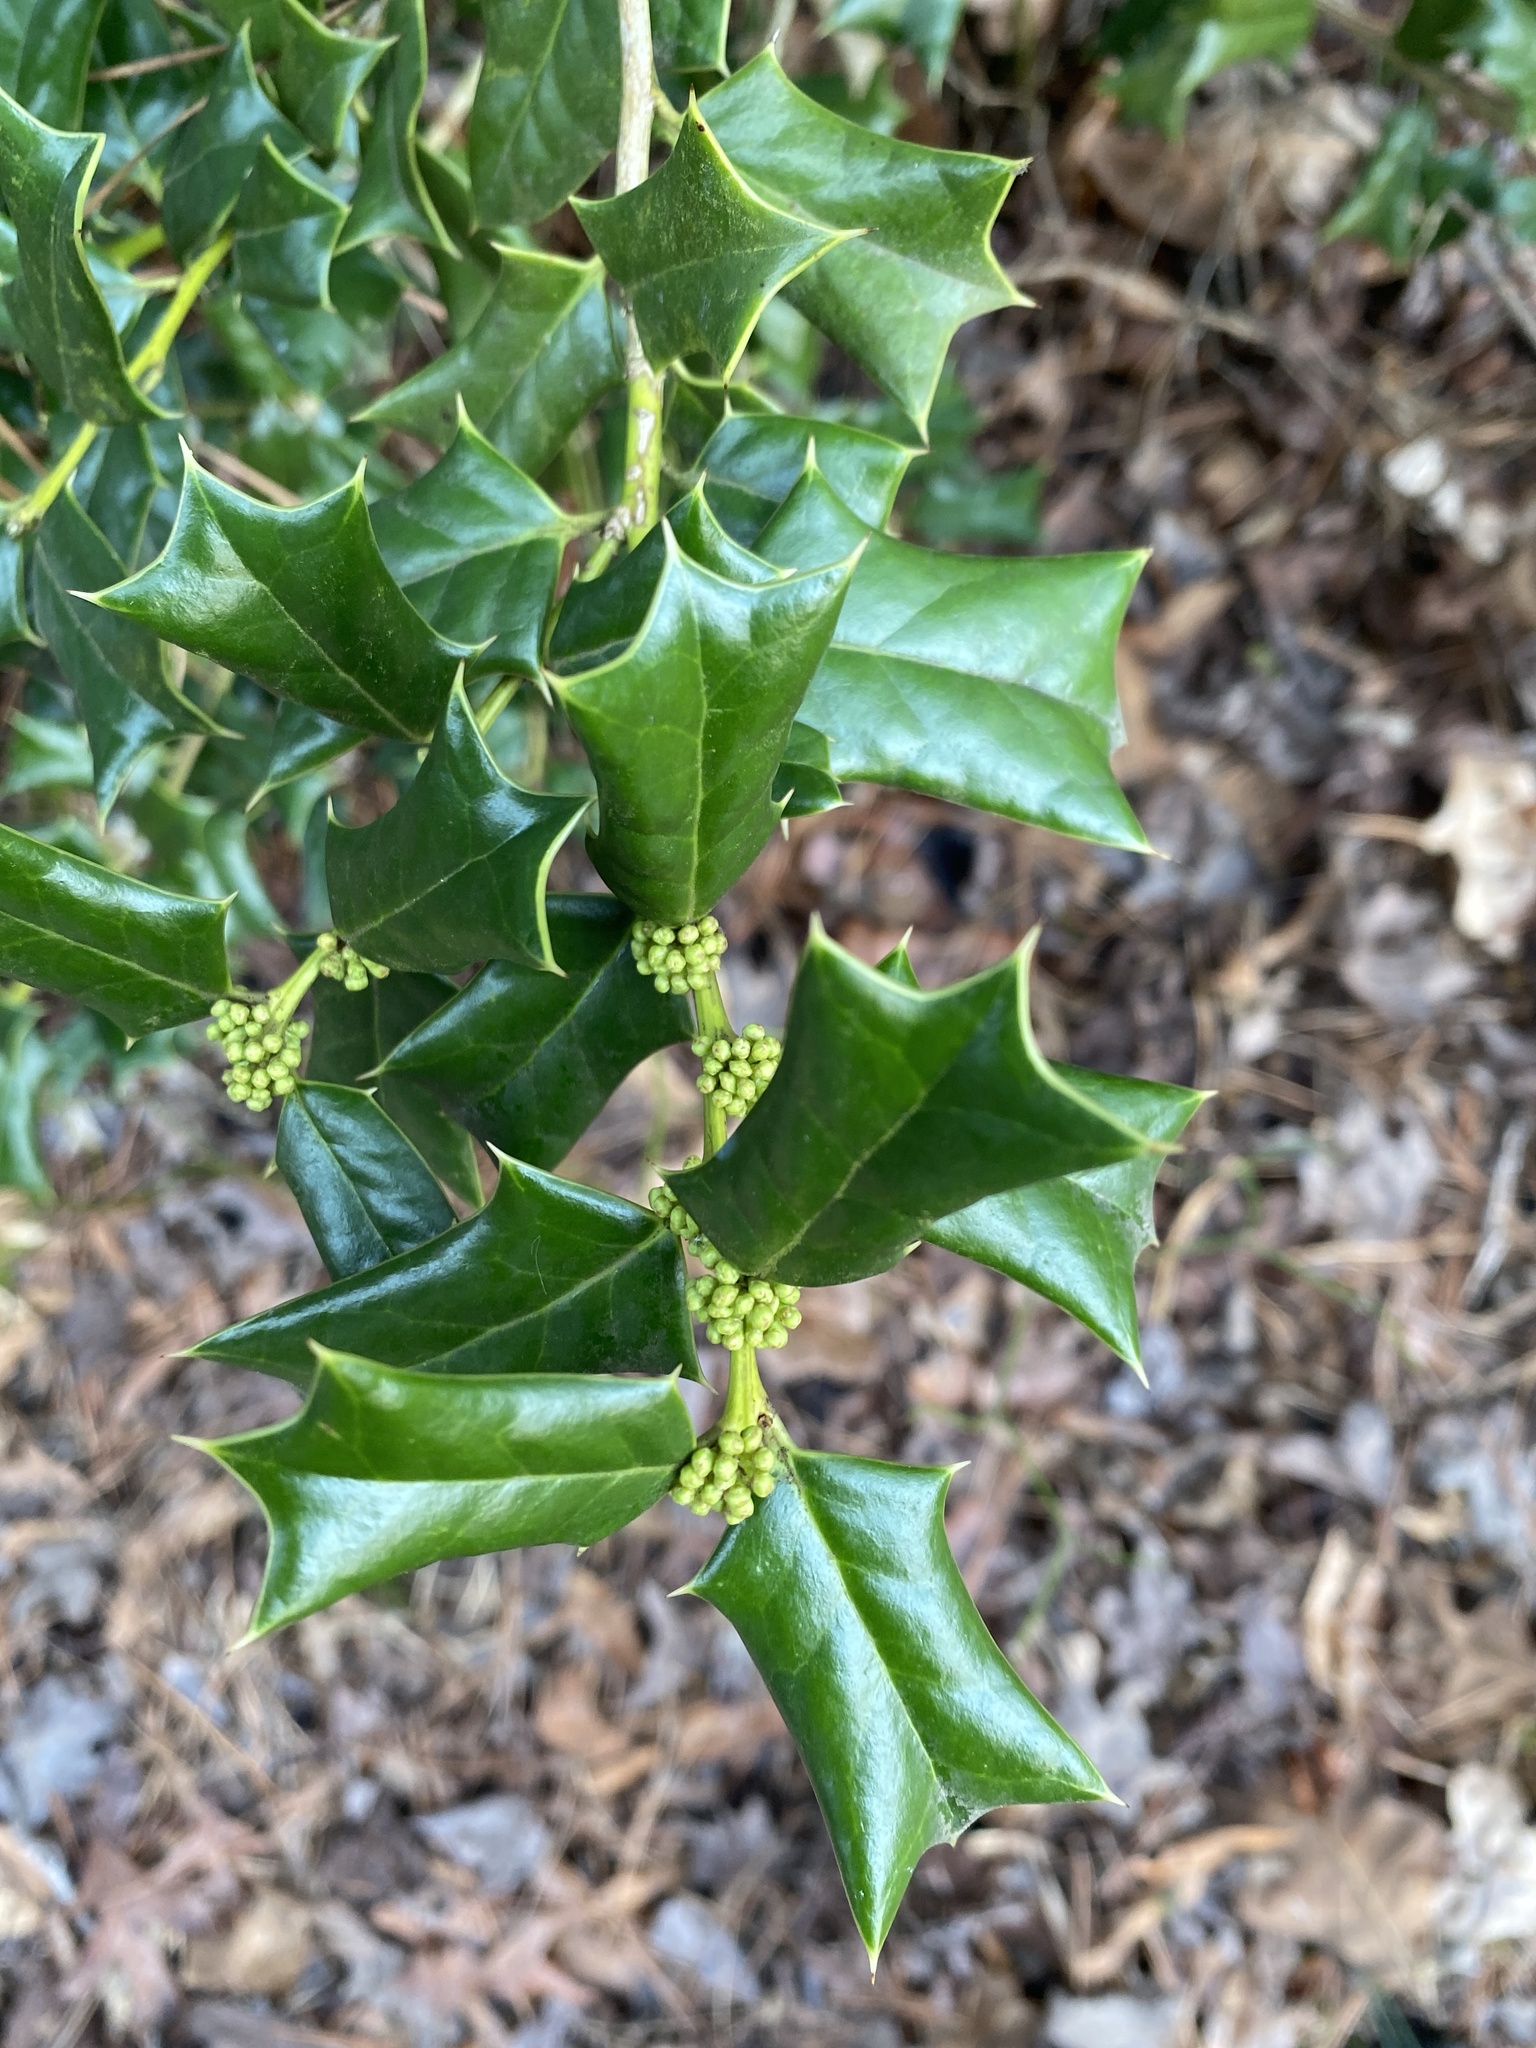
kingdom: Plantae
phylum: Tracheophyta
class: Magnoliopsida
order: Aquifoliales
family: Aquifoliaceae
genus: Ilex
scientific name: Ilex cornuta
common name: Chinese holly
